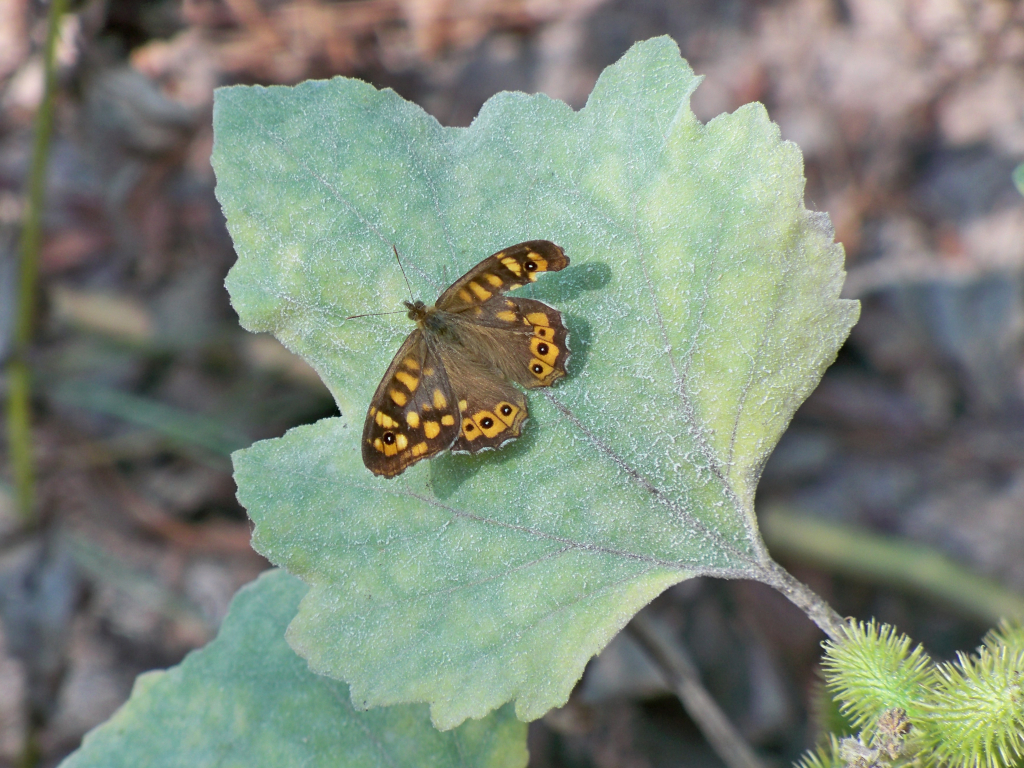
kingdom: Animalia
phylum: Arthropoda
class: Insecta
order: Lepidoptera
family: Nymphalidae
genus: Pararge
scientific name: Pararge aegeria
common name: Speckled wood
